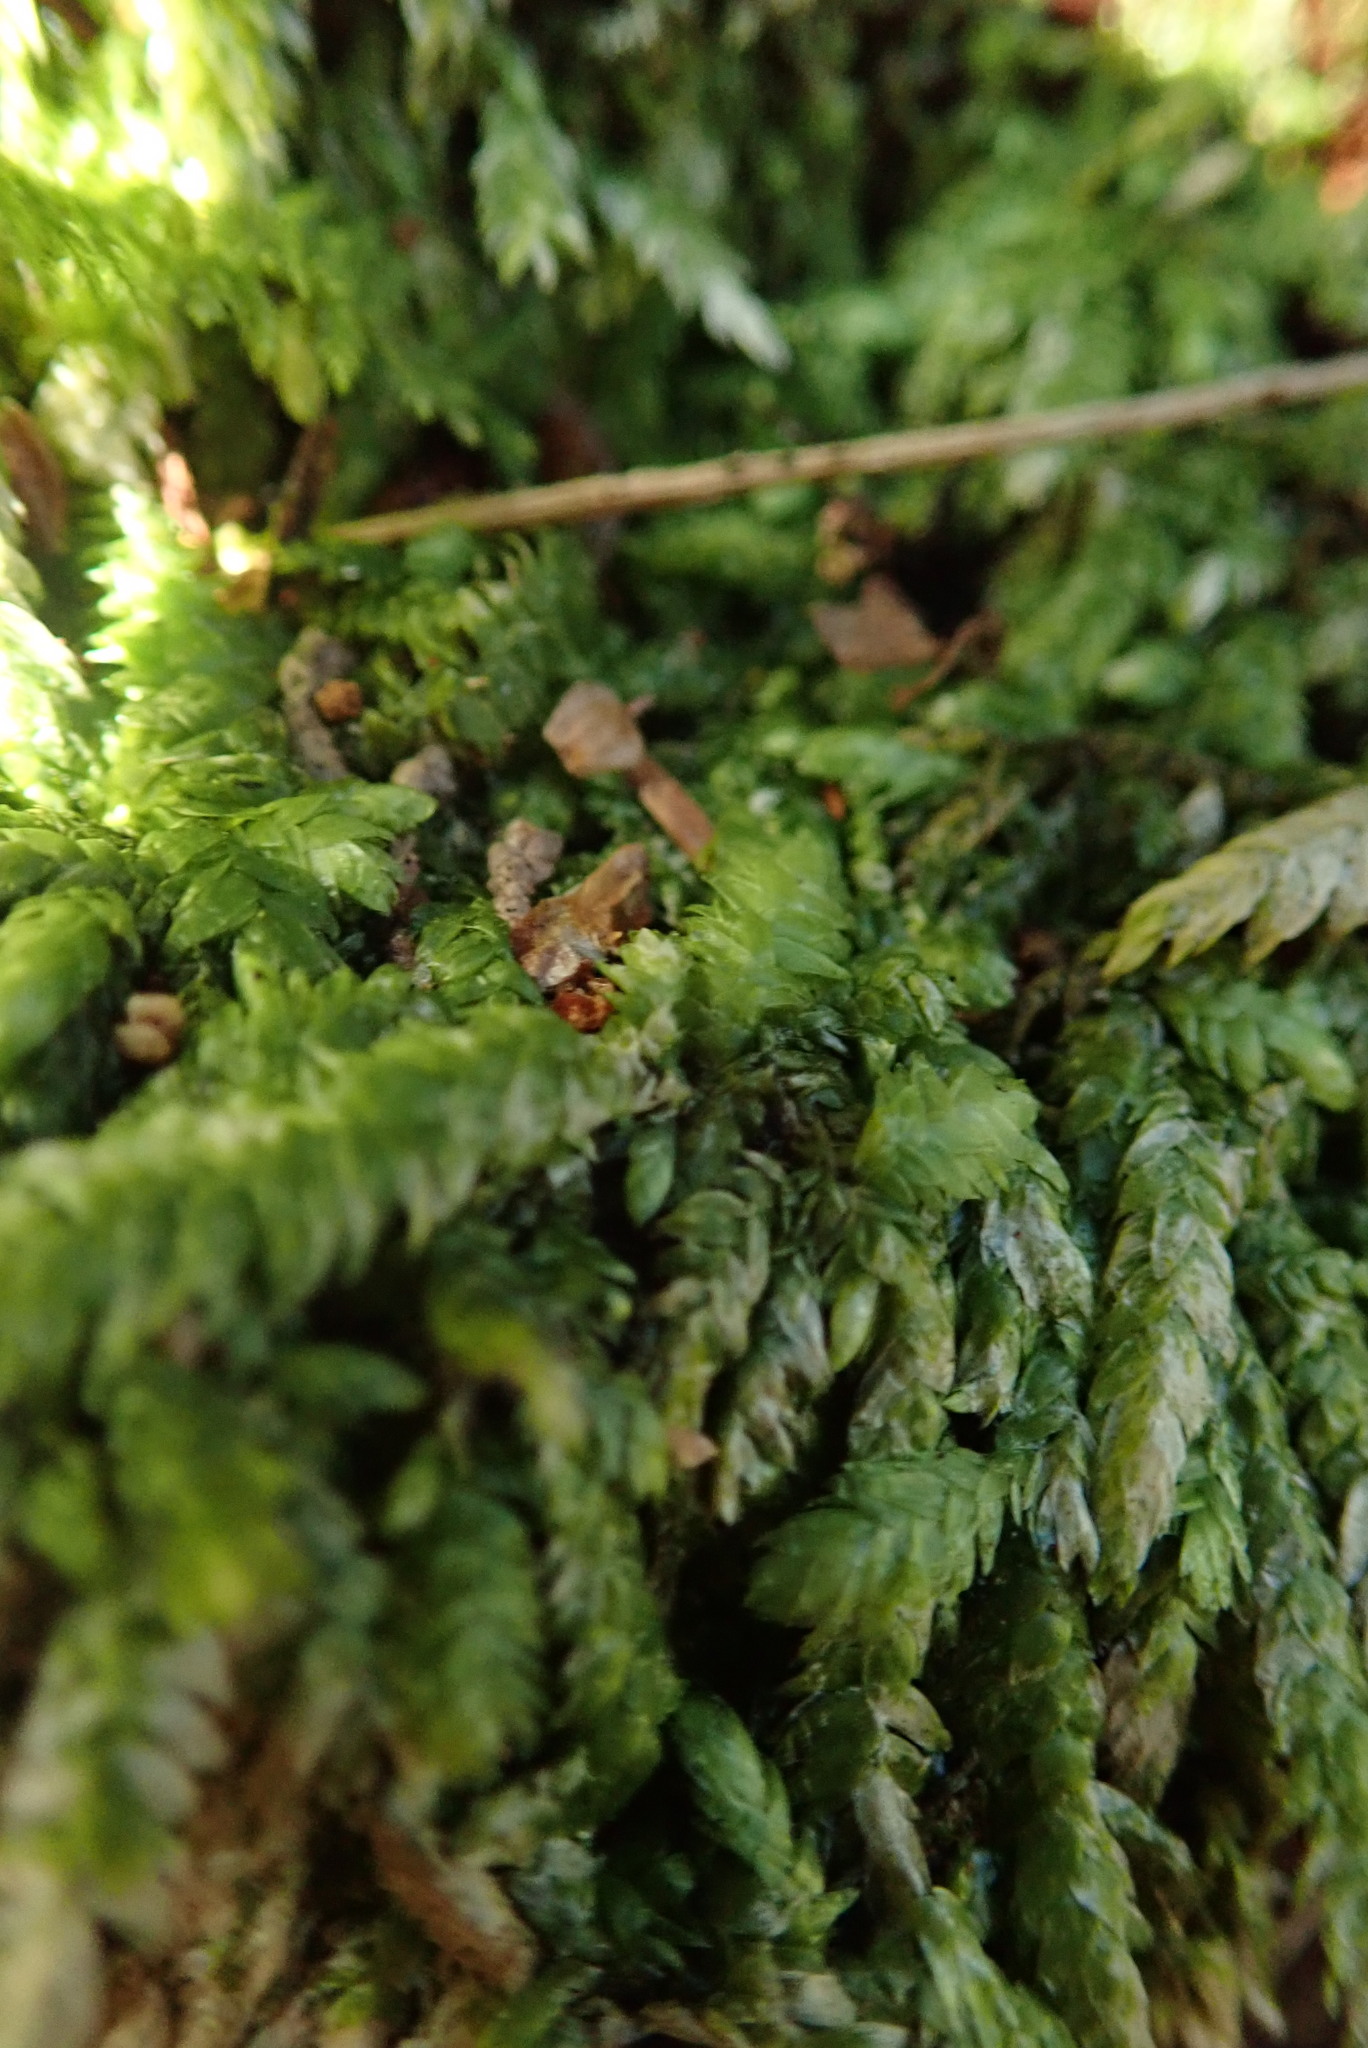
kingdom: Plantae
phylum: Bryophyta
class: Bryopsida
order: Hypnales
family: Plagiotheciaceae
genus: Plagiothecium
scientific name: Plagiothecium undulatum
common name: Waved silk-moss
